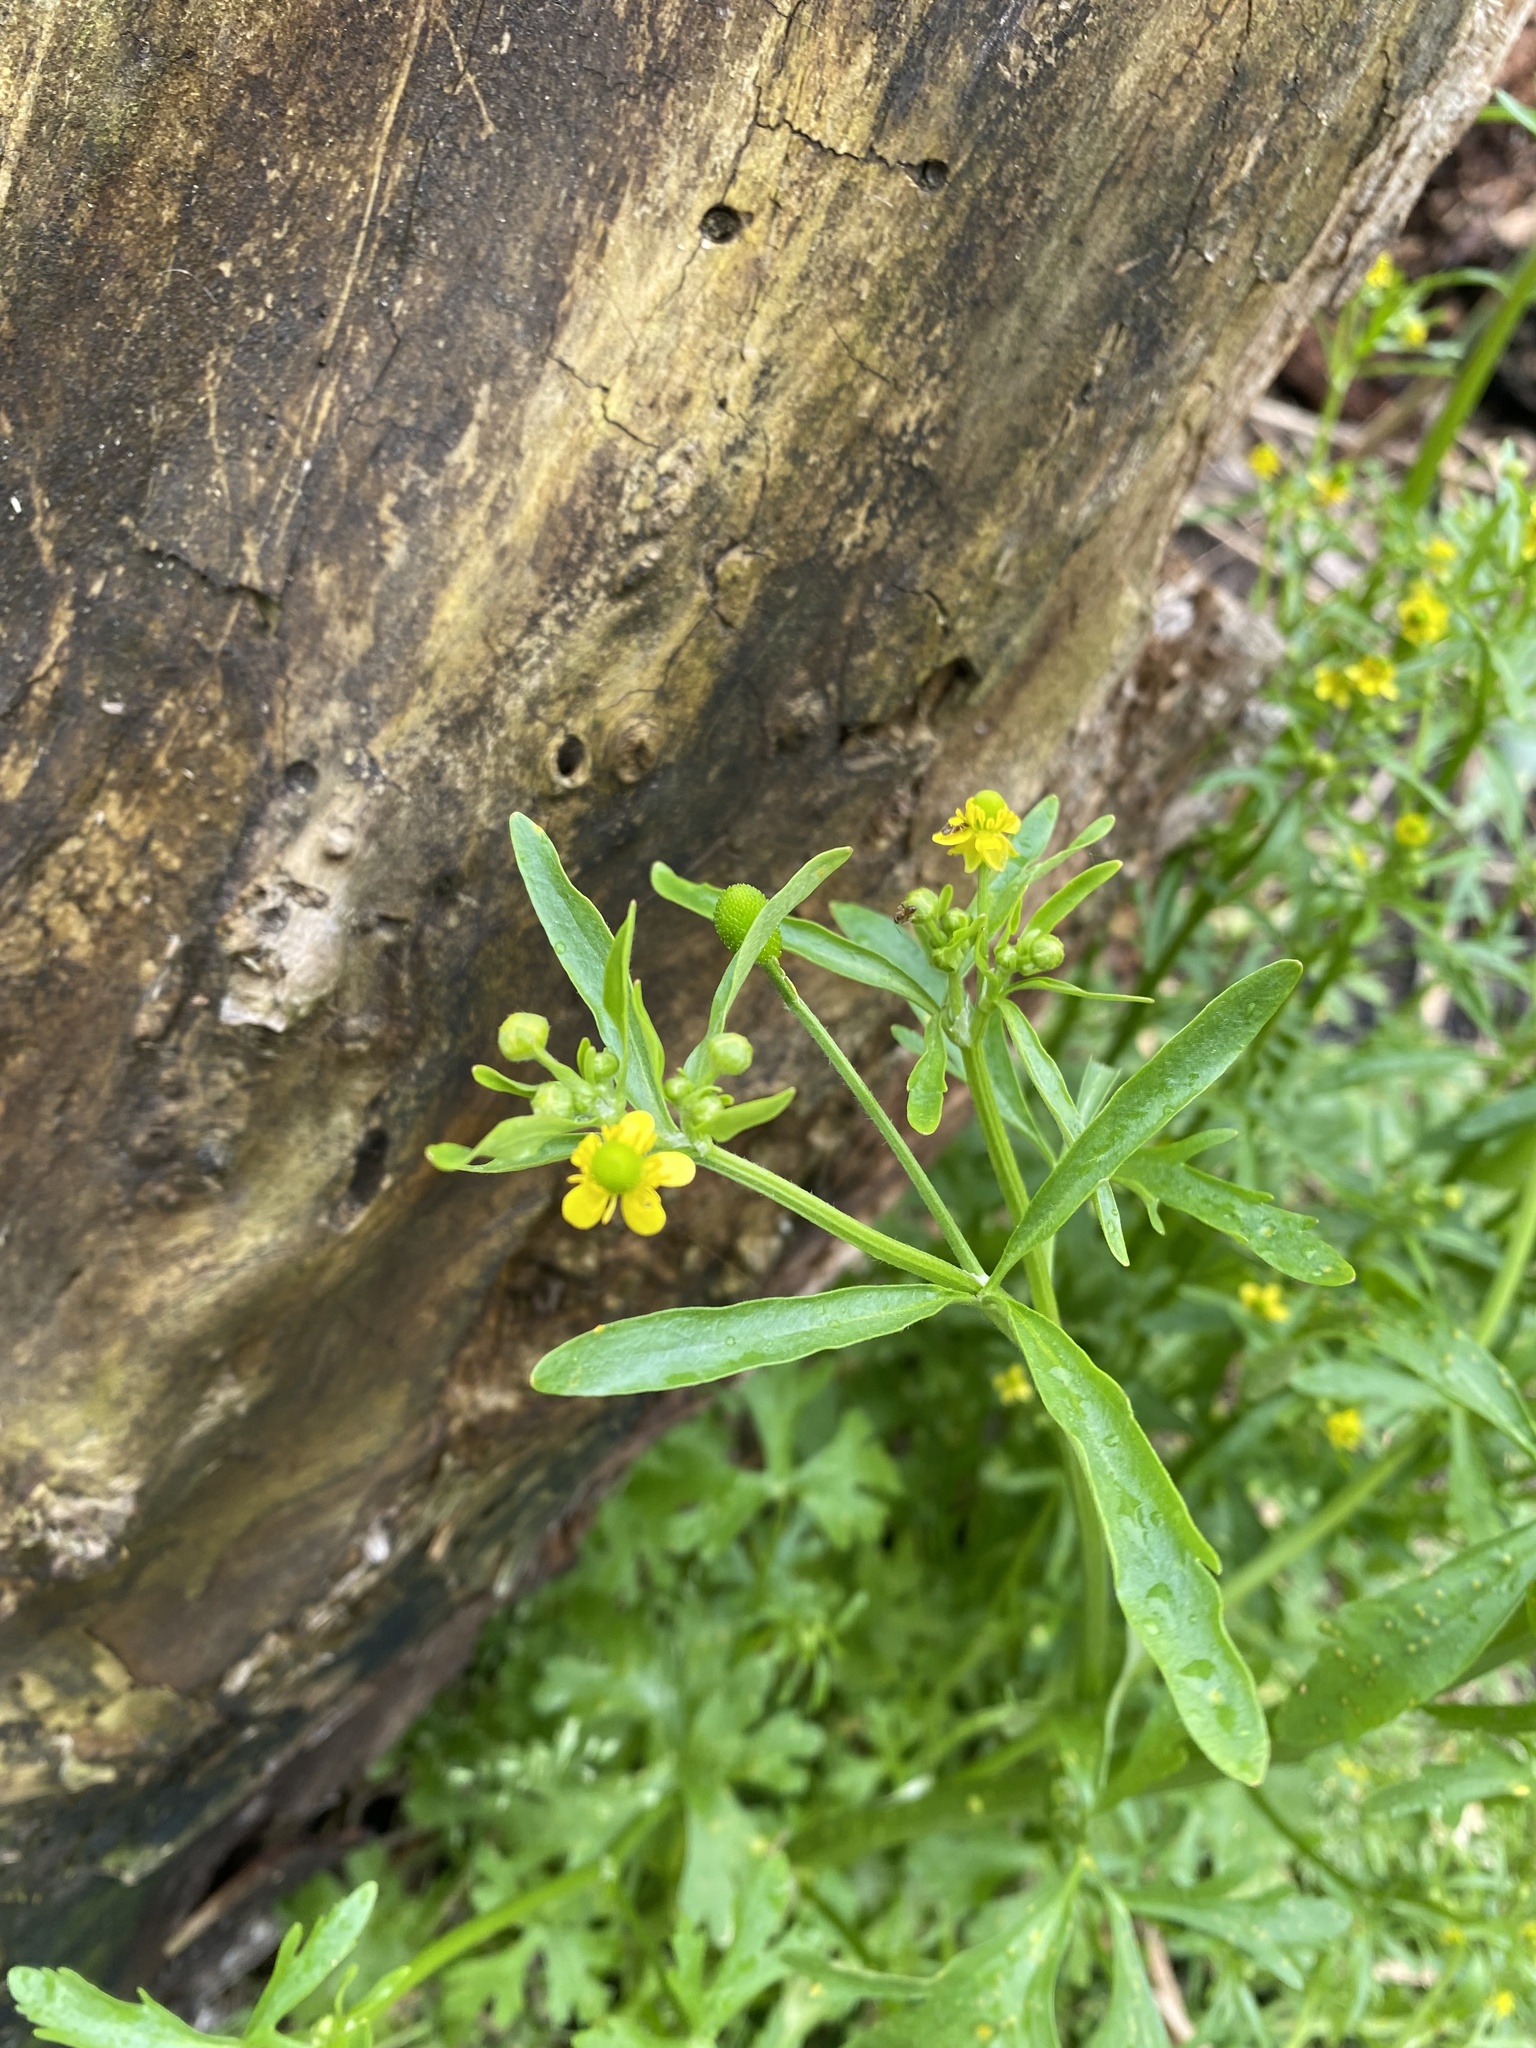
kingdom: Plantae
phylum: Tracheophyta
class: Magnoliopsida
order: Ranunculales
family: Ranunculaceae
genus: Ranunculus
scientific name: Ranunculus sceleratus
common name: Celery-leaved buttercup
